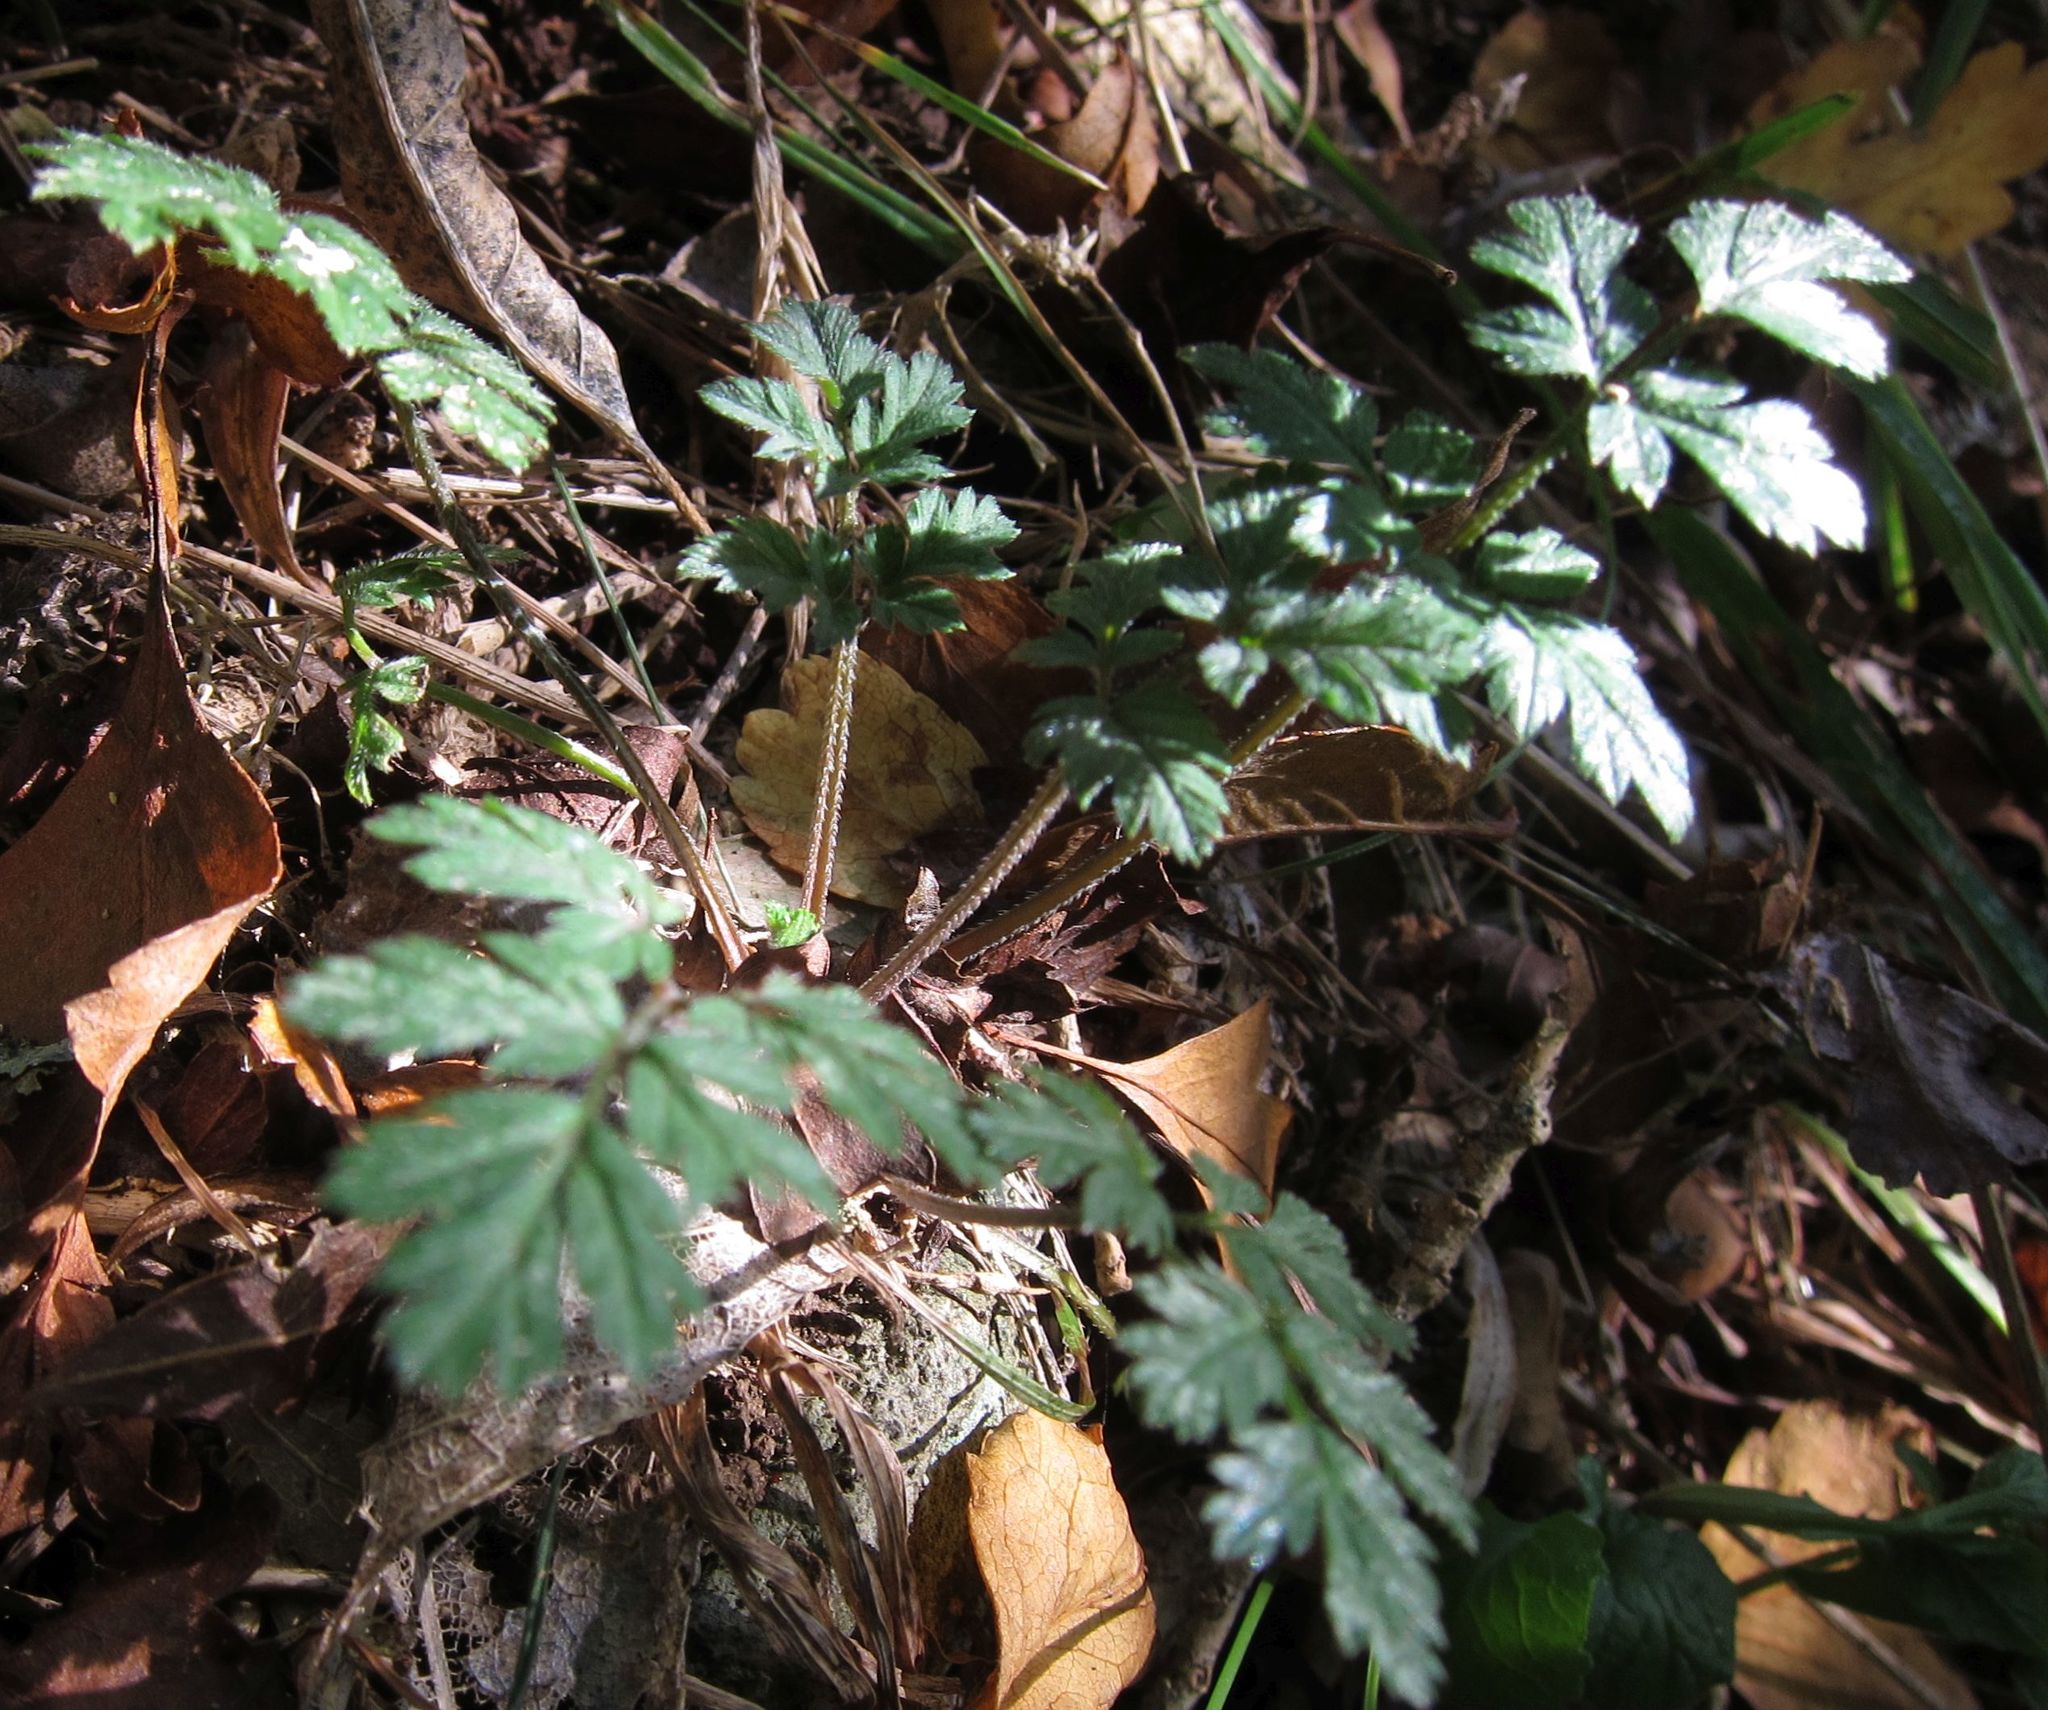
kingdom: Plantae
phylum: Tracheophyta
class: Magnoliopsida
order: Apiales
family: Apiaceae
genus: Anthriscus
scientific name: Anthriscus caucalis
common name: Bur chervil
